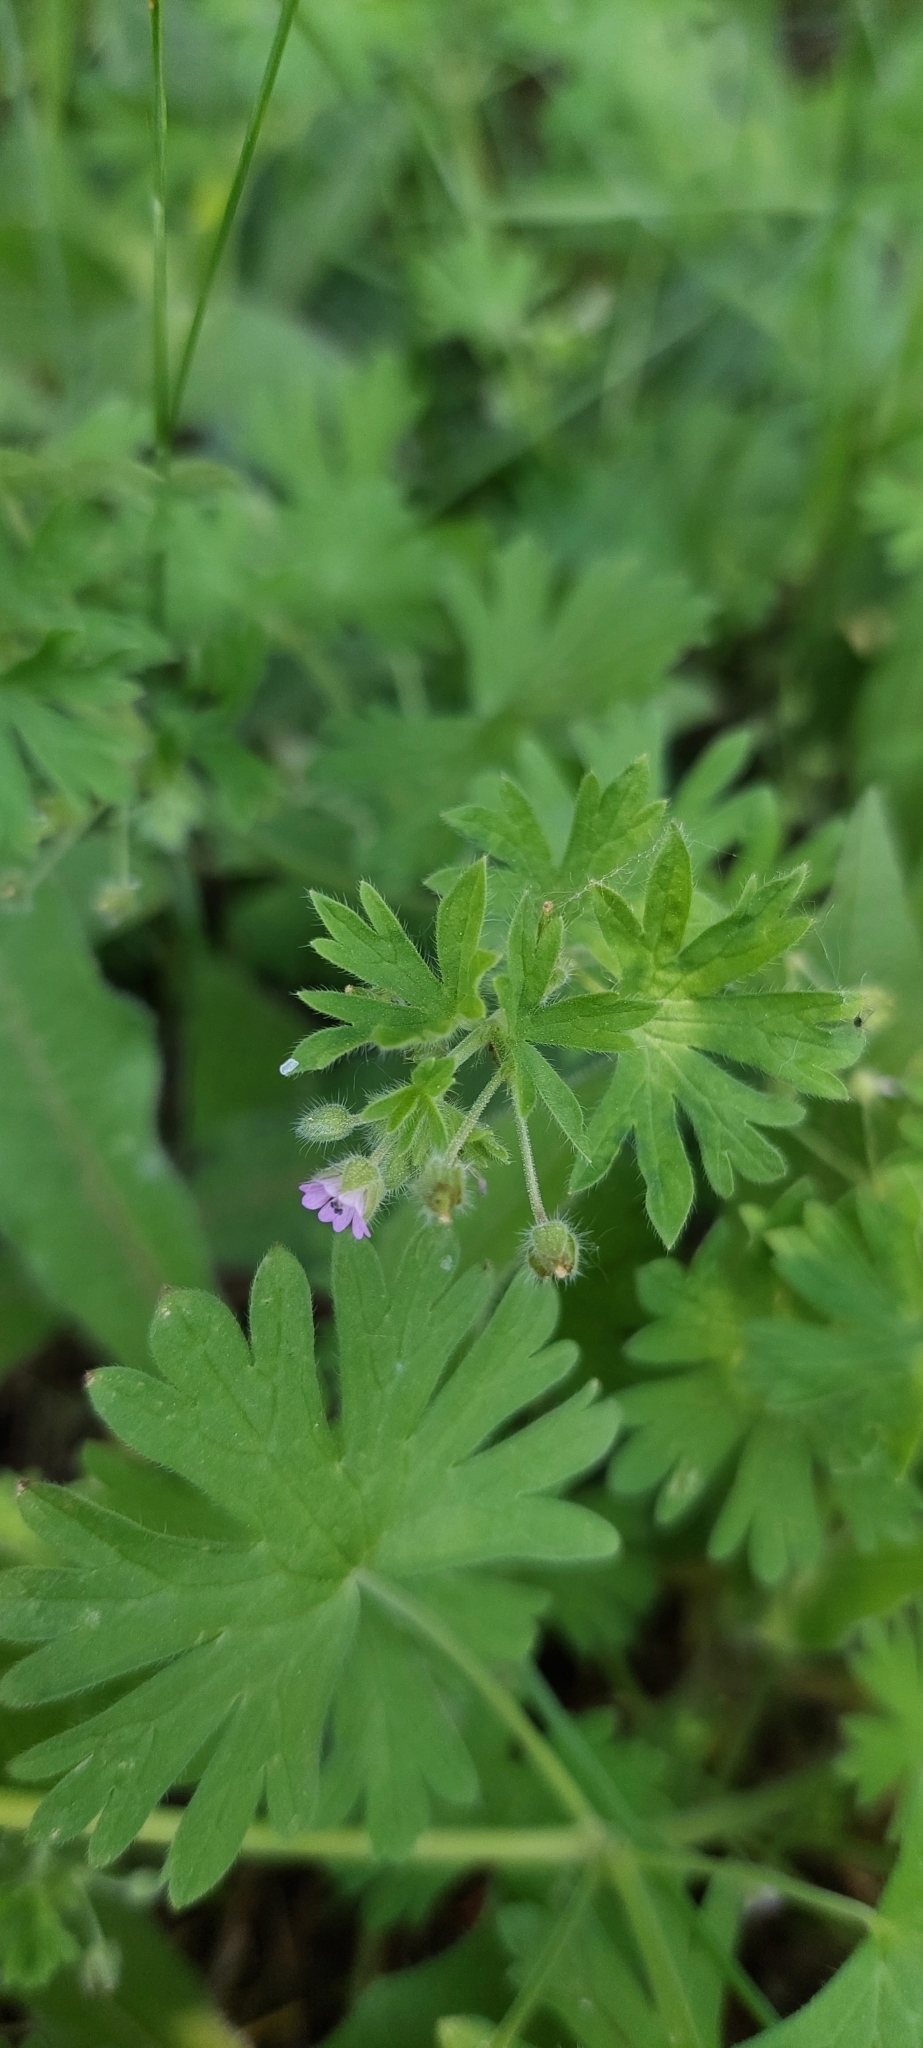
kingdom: Plantae
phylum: Tracheophyta
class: Magnoliopsida
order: Geraniales
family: Geraniaceae
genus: Geranium
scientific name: Geranium pusillum
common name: Small geranium
